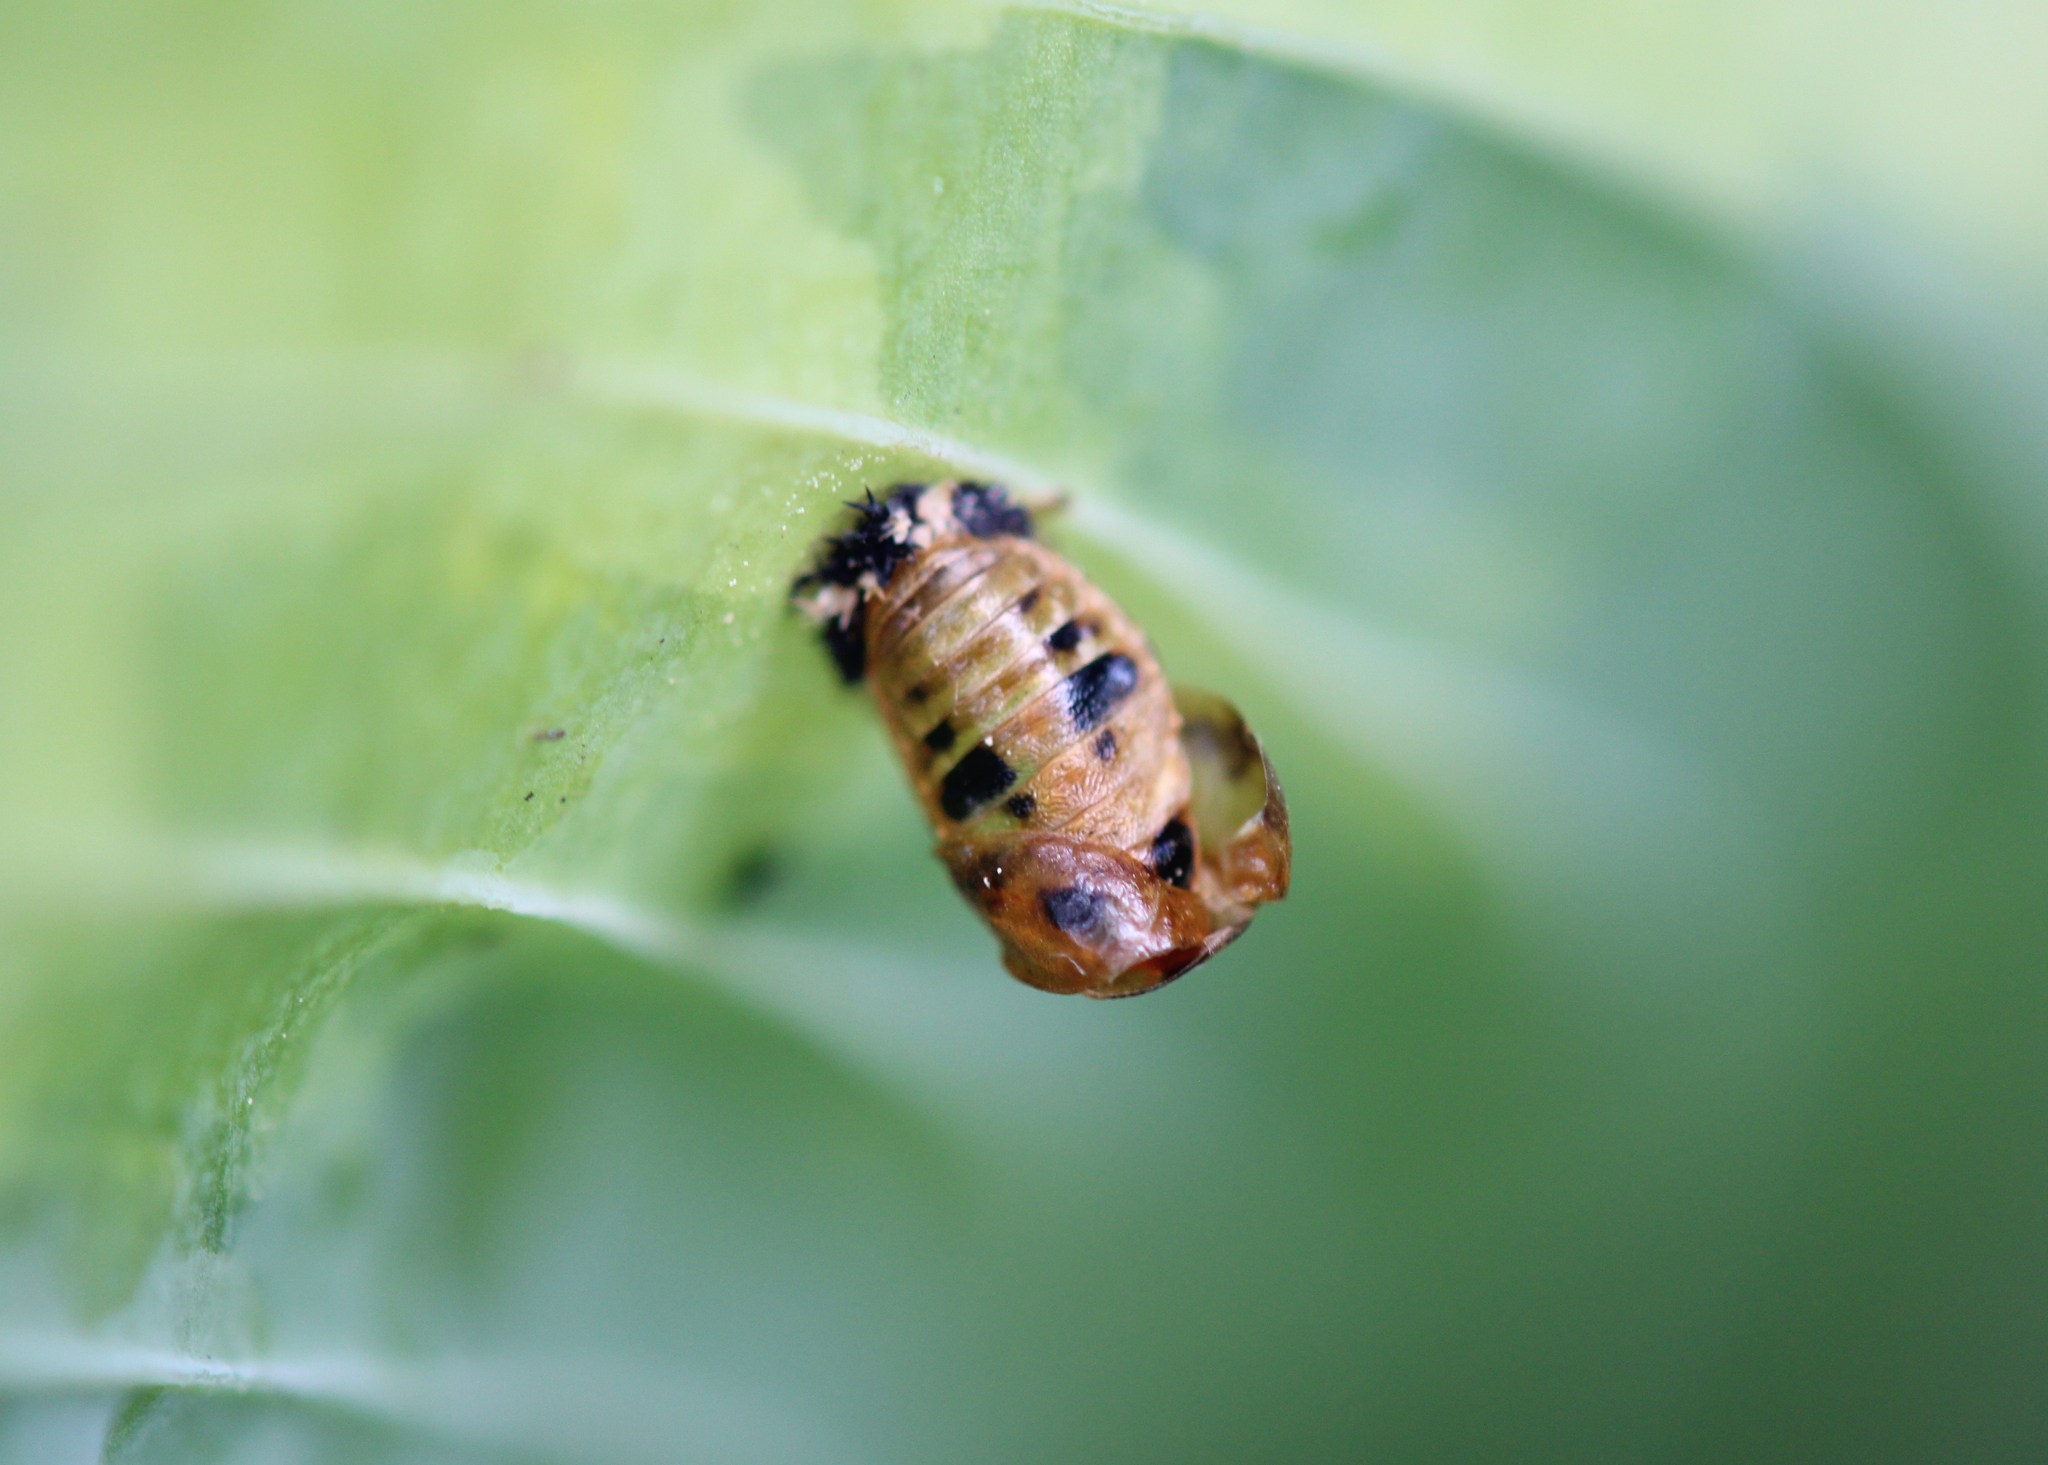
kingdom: Animalia
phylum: Arthropoda
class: Insecta
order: Coleoptera
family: Coccinellidae
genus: Harmonia
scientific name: Harmonia axyridis
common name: Harlequin ladybird
